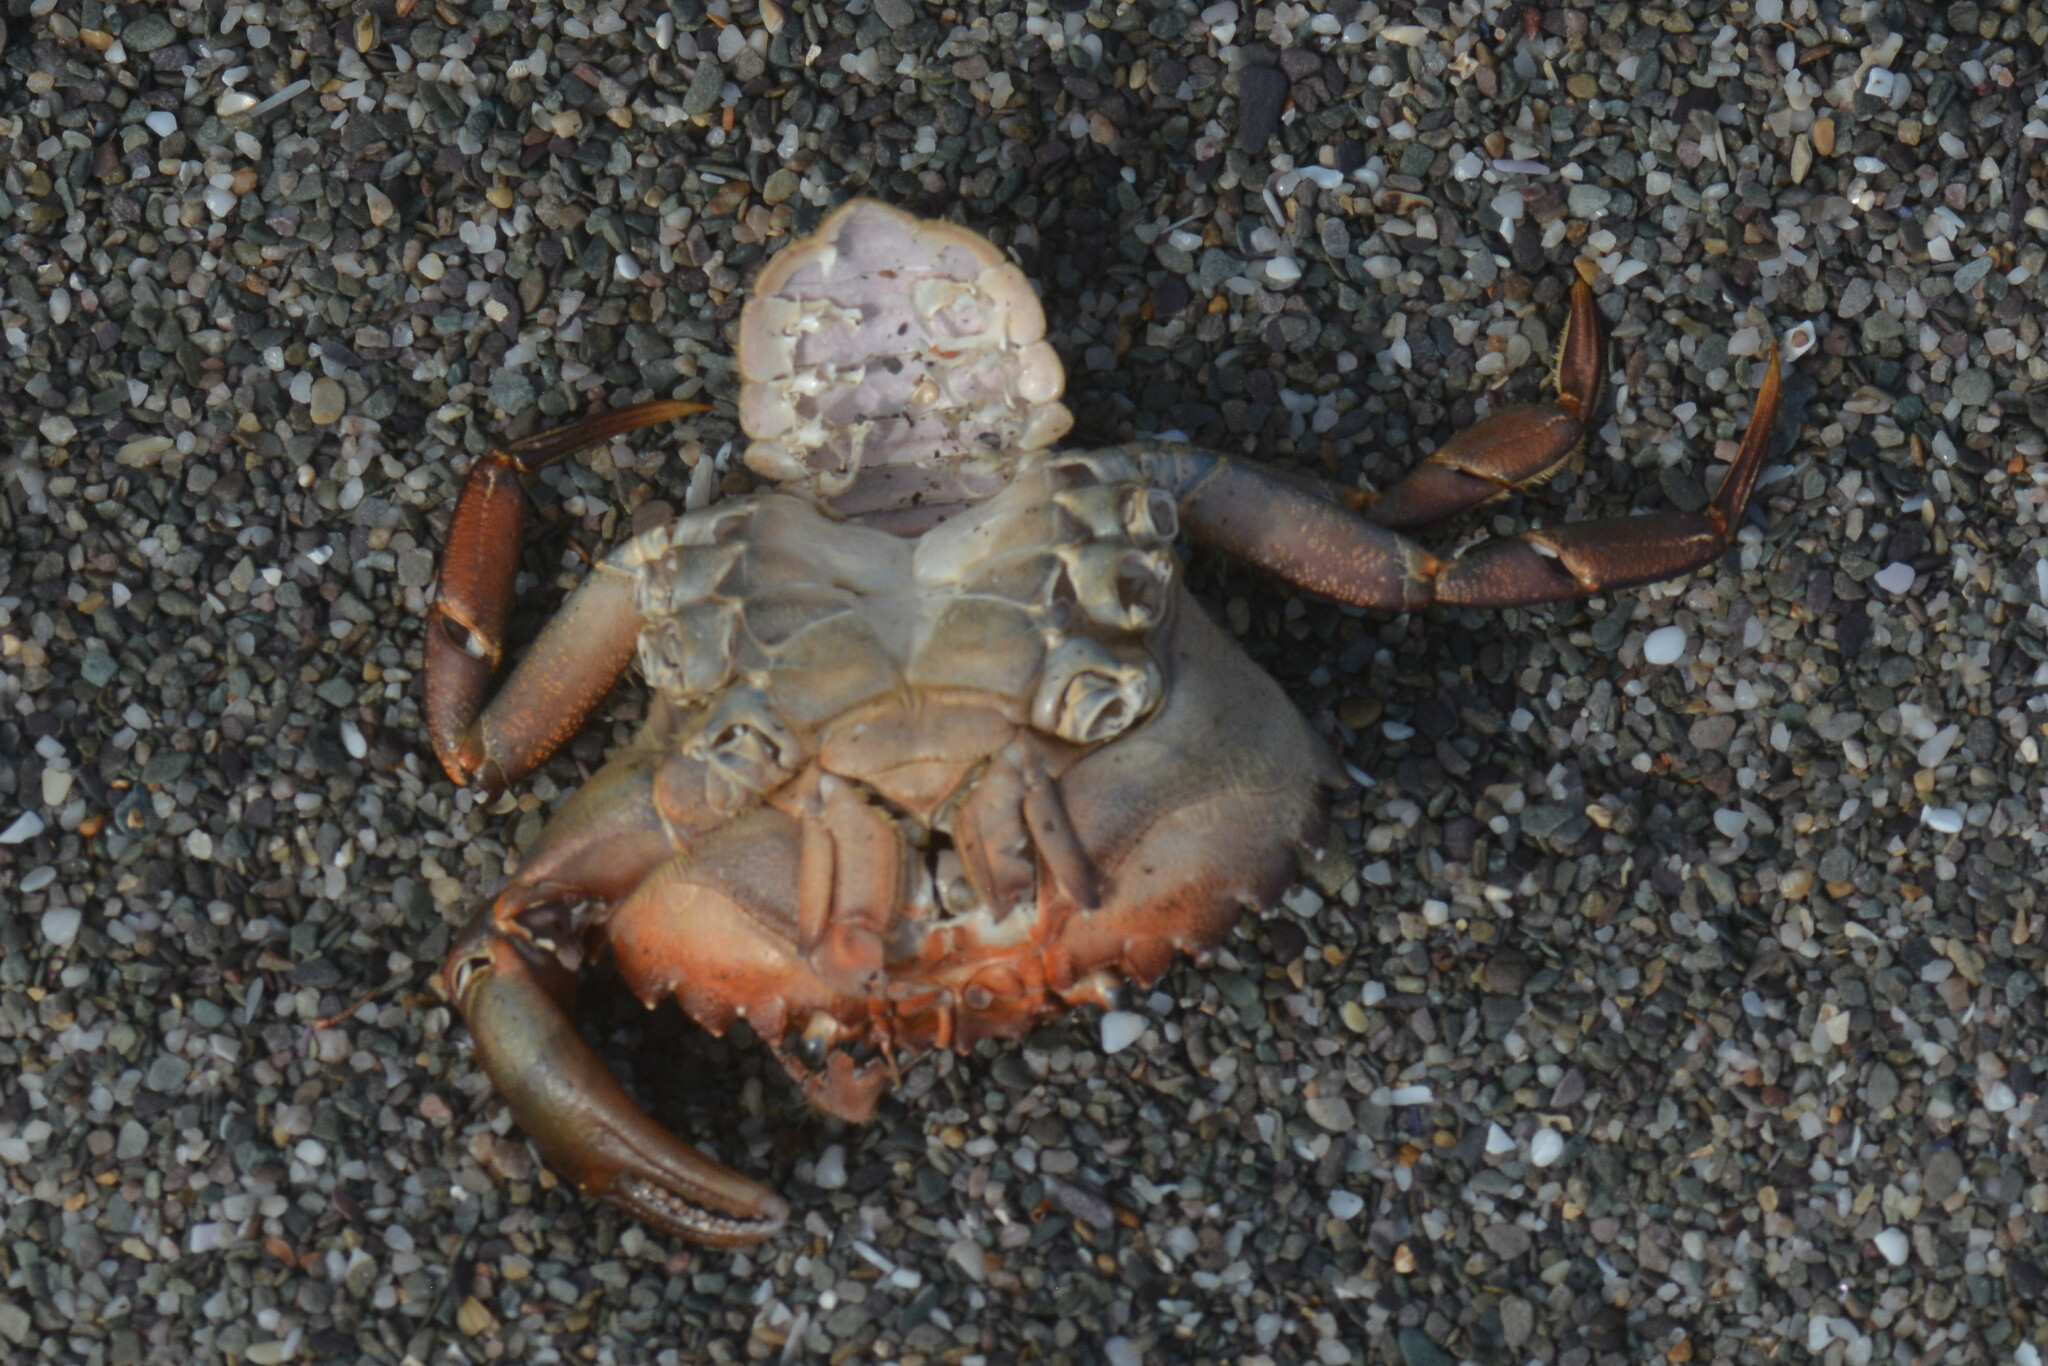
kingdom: Animalia
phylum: Arthropoda
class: Malacostraca
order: Decapoda
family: Carcinidae
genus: Carcinus
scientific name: Carcinus maenas
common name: European green crab
